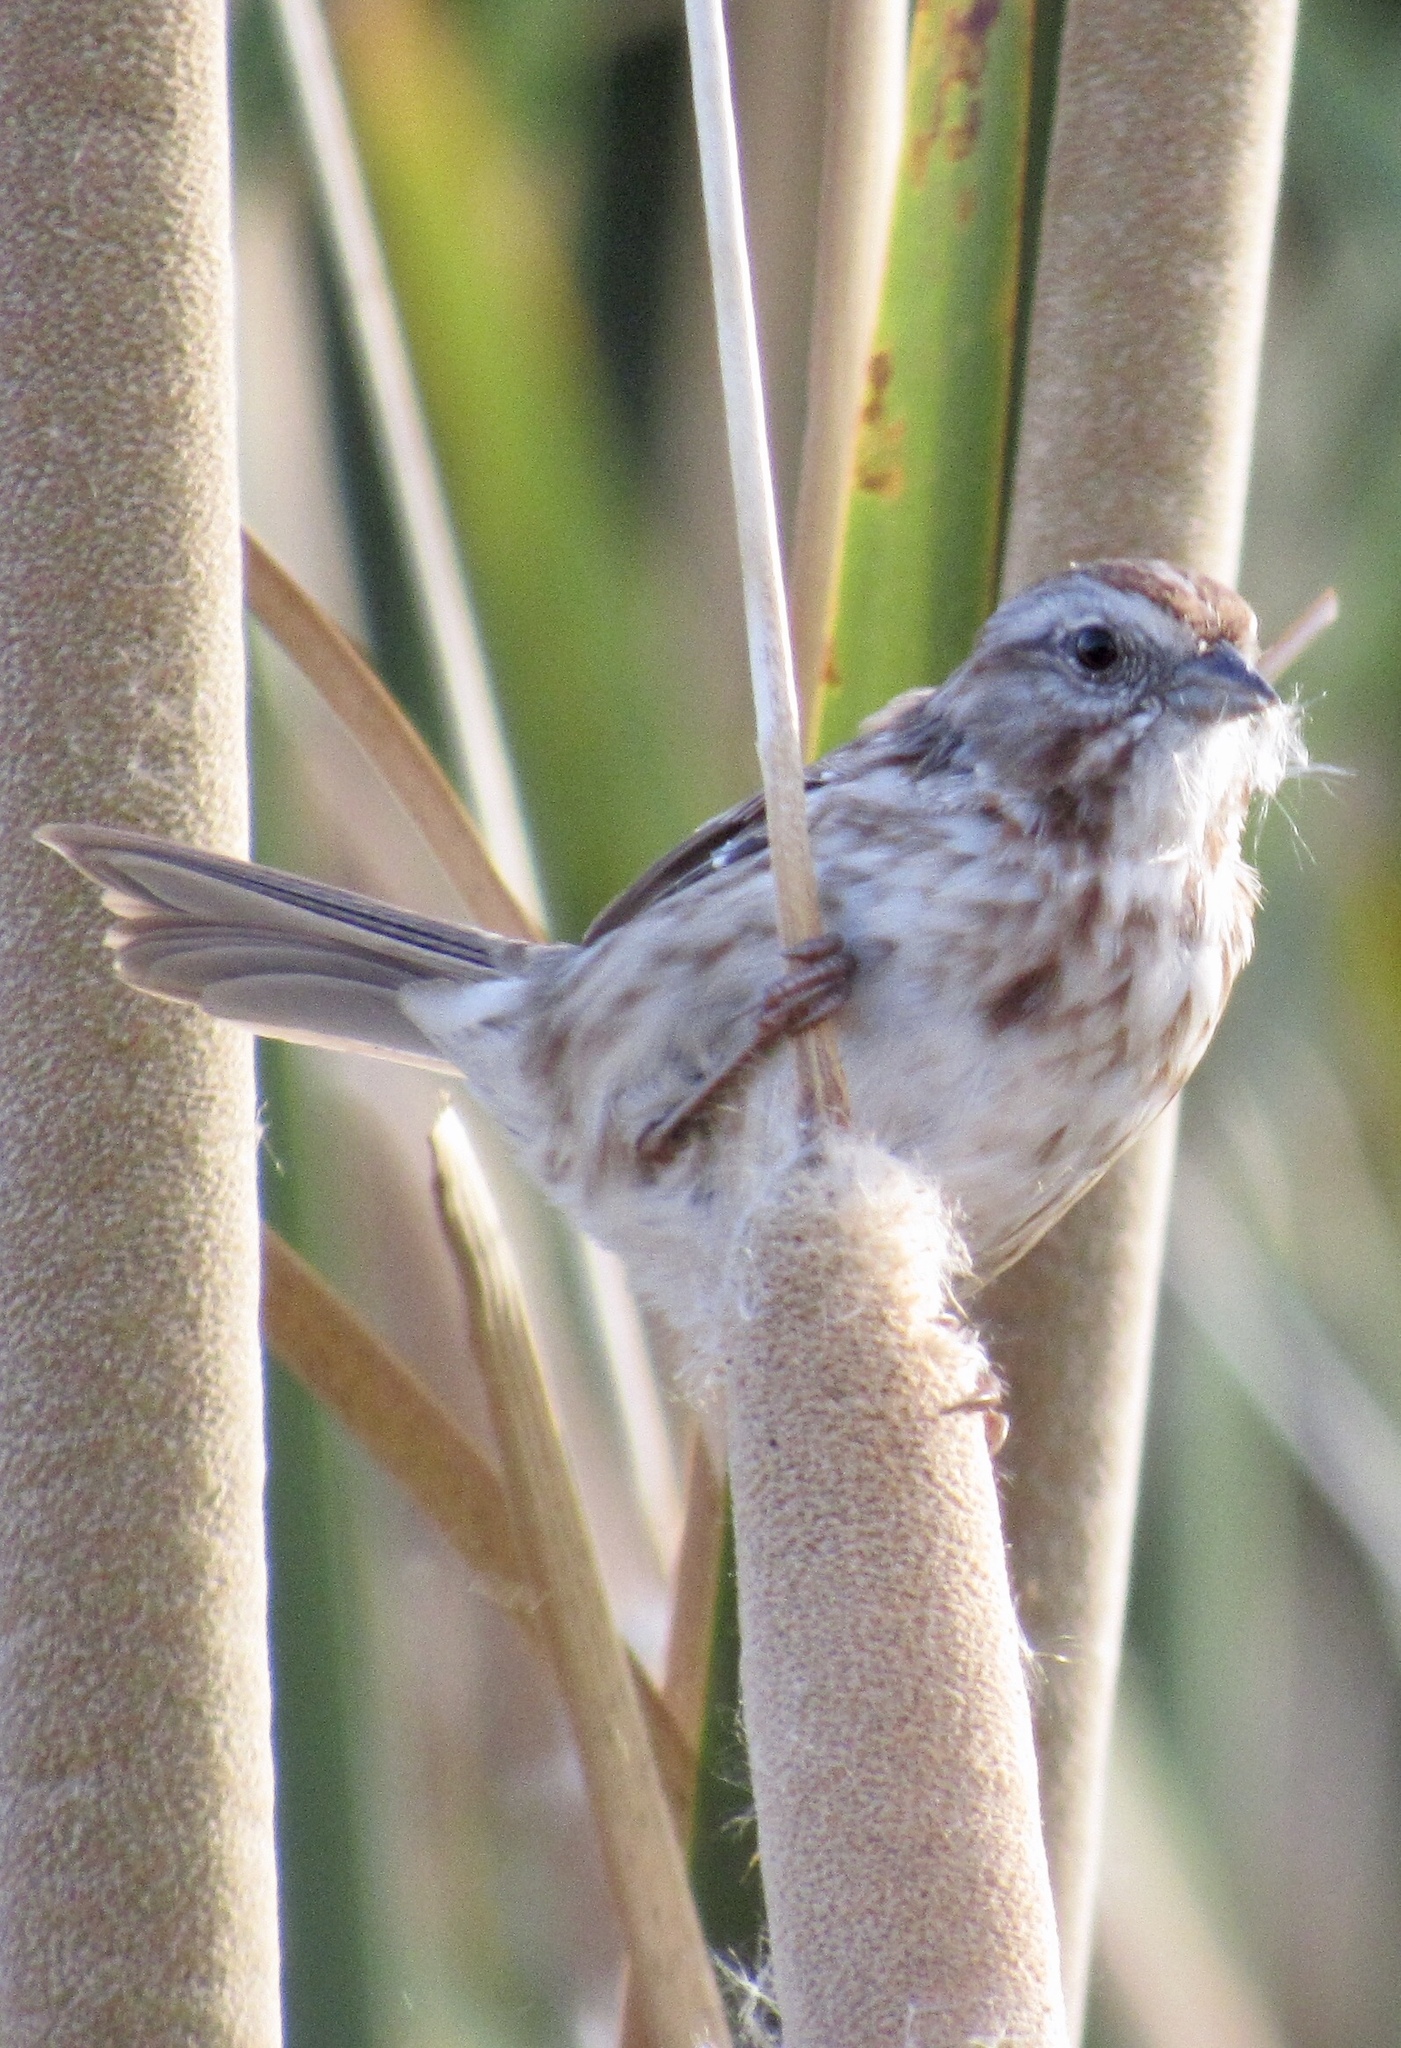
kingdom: Animalia
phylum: Chordata
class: Aves
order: Passeriformes
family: Passerellidae
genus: Melospiza
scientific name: Melospiza melodia
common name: Song sparrow
